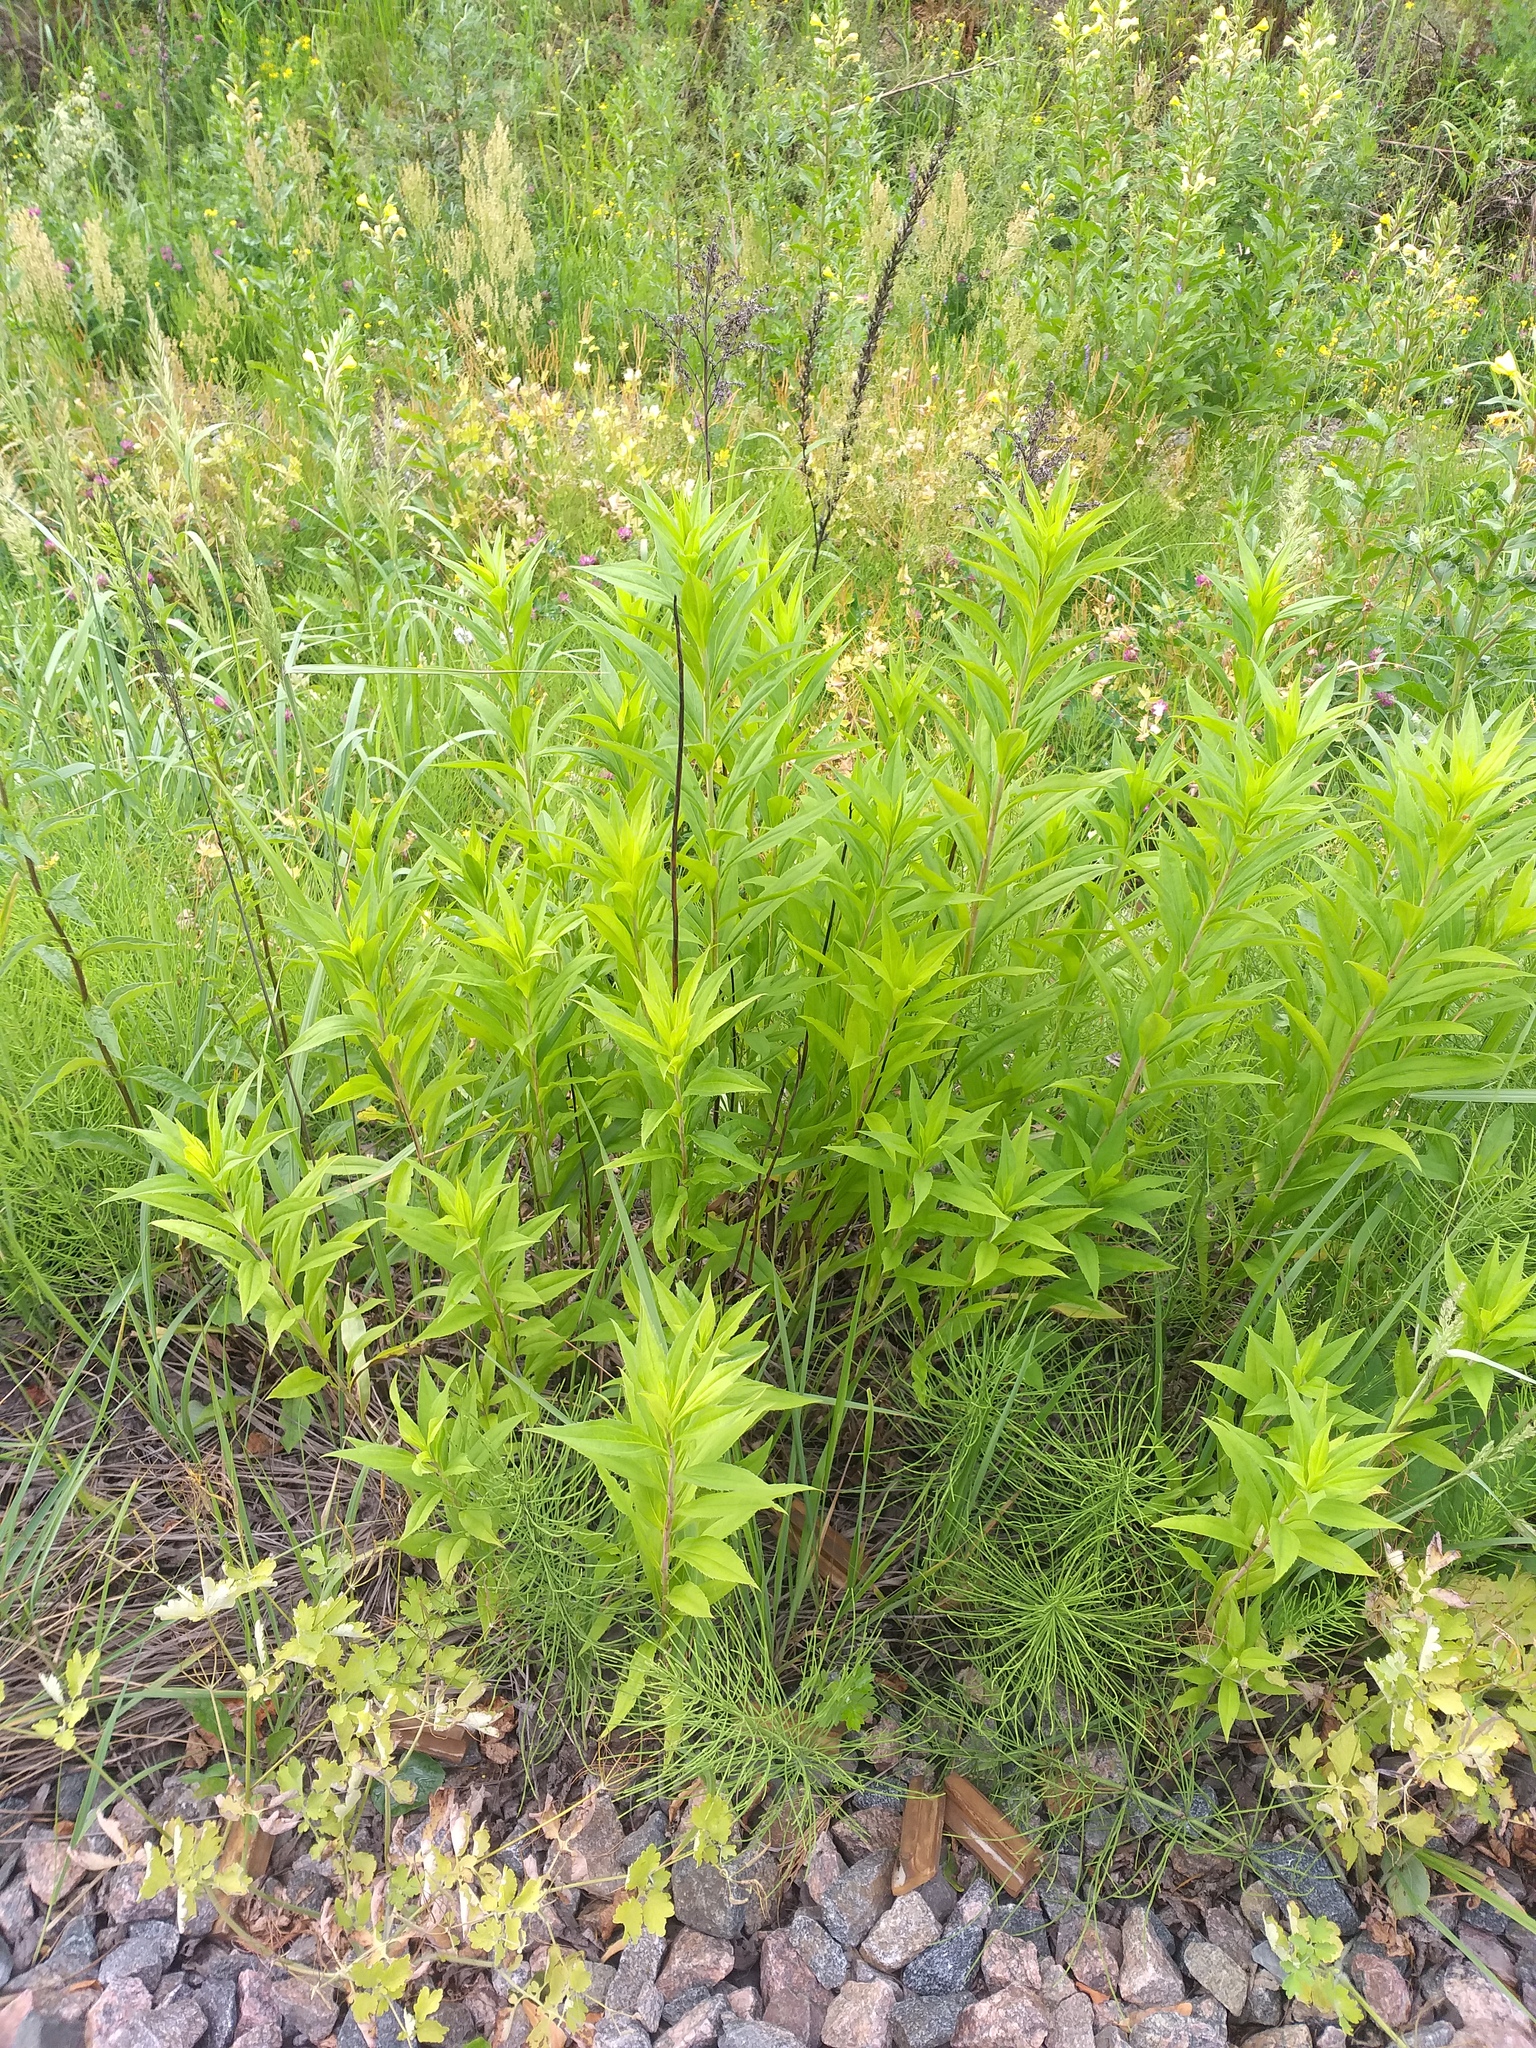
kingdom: Plantae
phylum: Tracheophyta
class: Magnoliopsida
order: Asterales
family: Asteraceae
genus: Solidago
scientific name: Solidago gigantea
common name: Giant goldenrod
